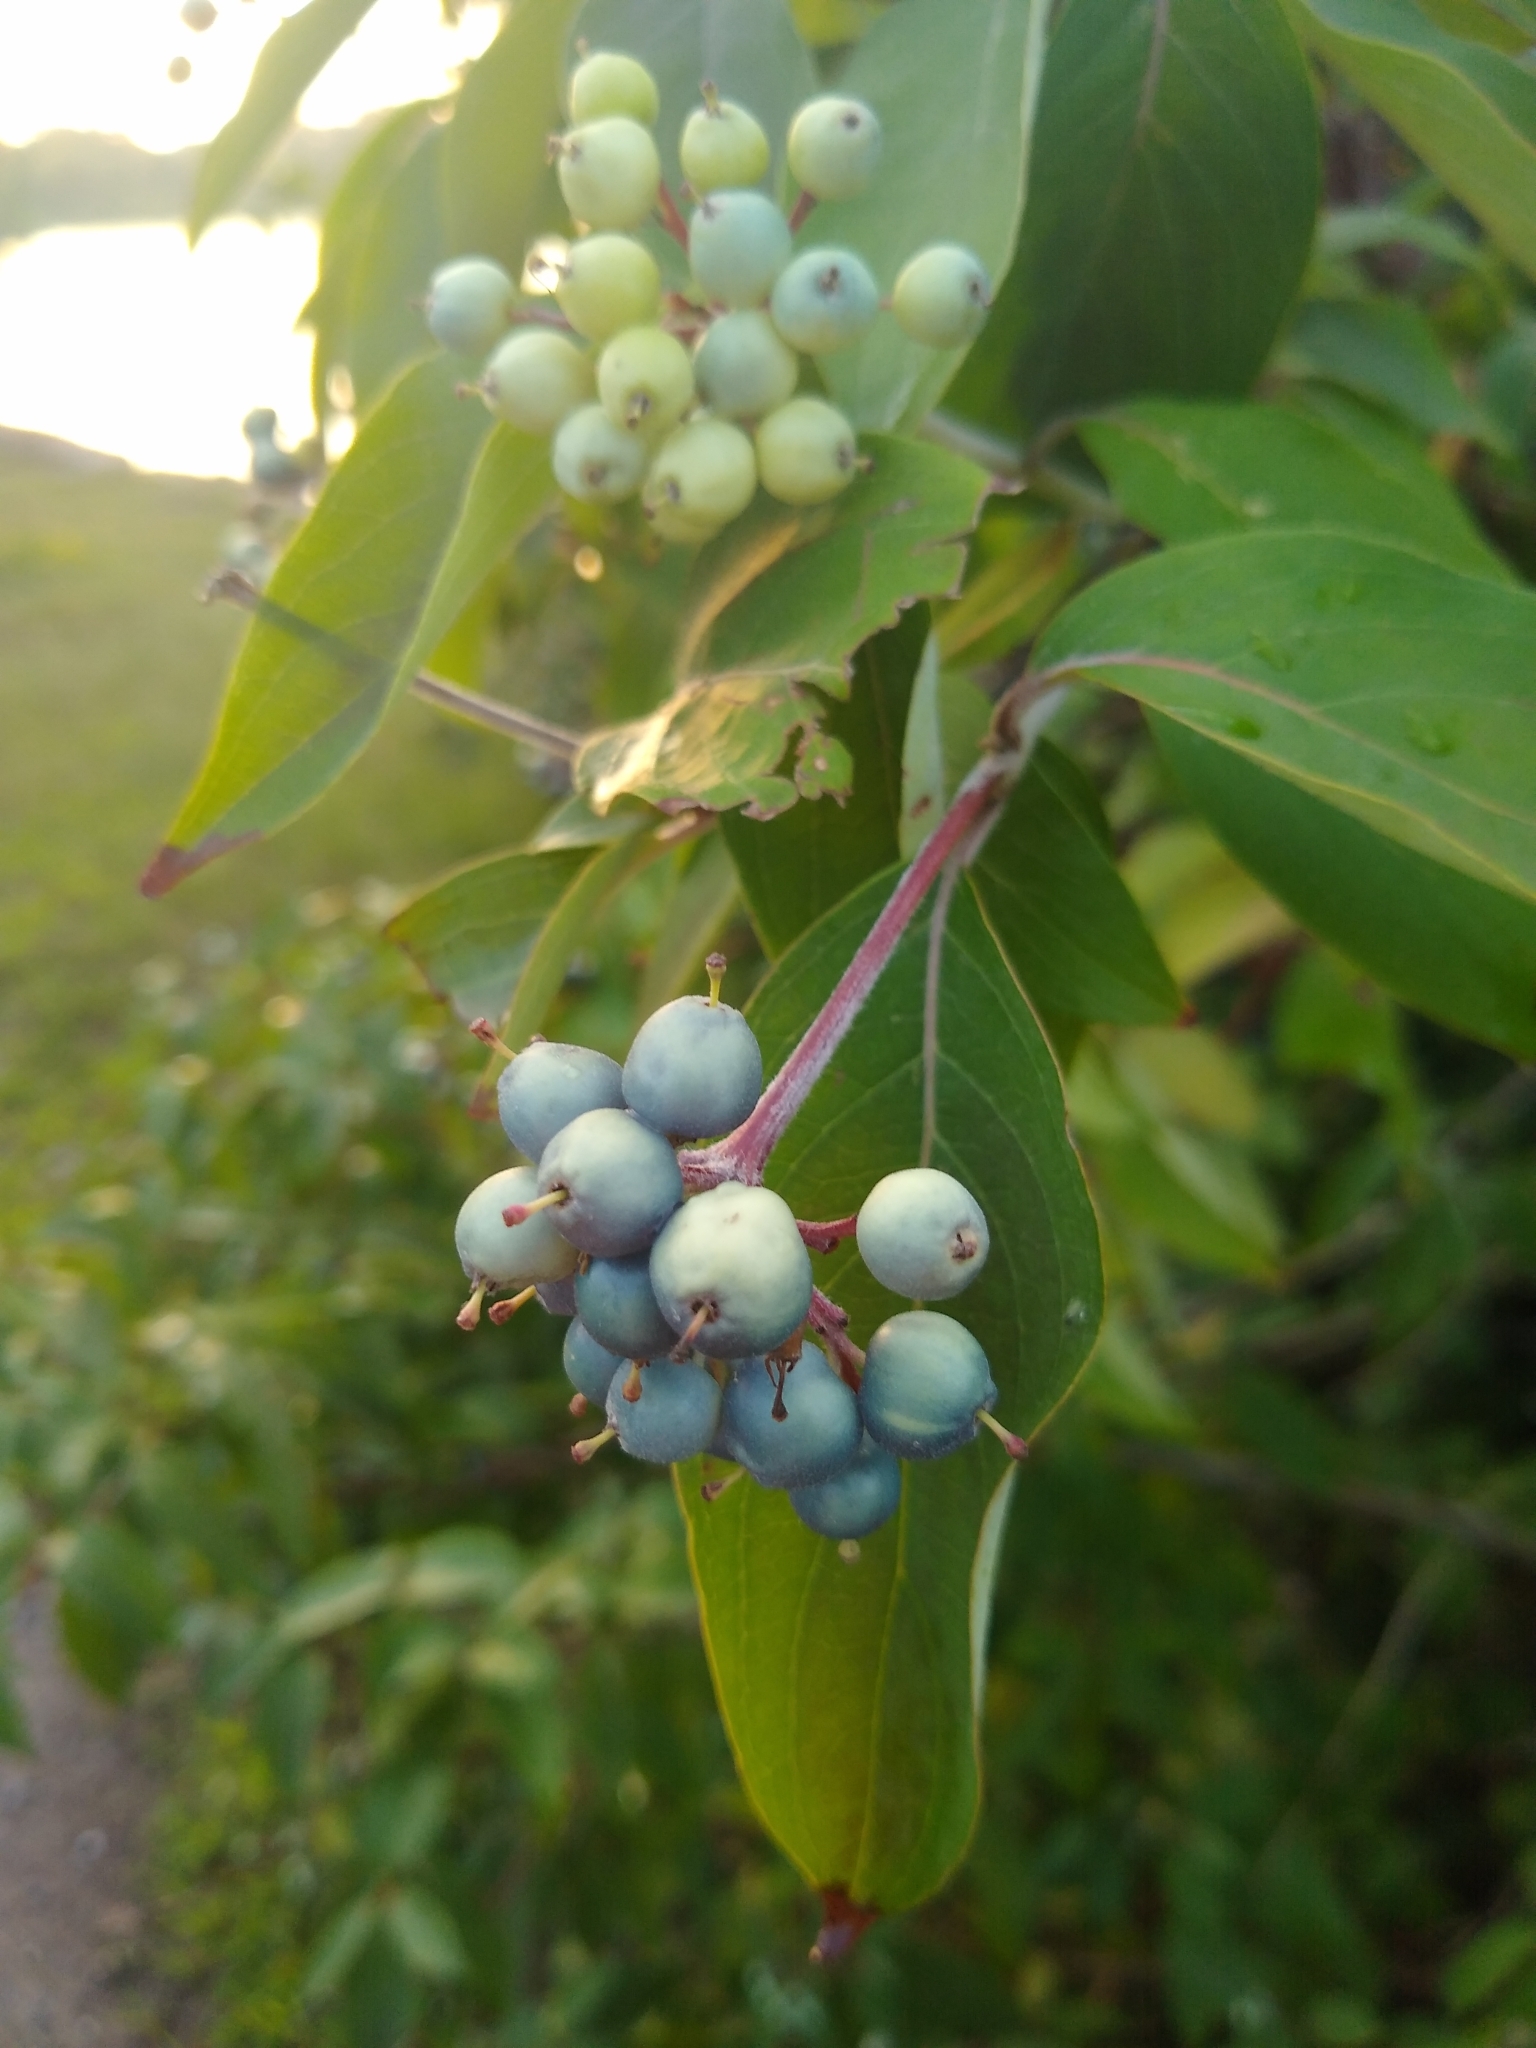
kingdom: Plantae
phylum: Tracheophyta
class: Magnoliopsida
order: Cornales
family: Cornaceae
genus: Cornus
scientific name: Cornus obliqua
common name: Pale dogwood
